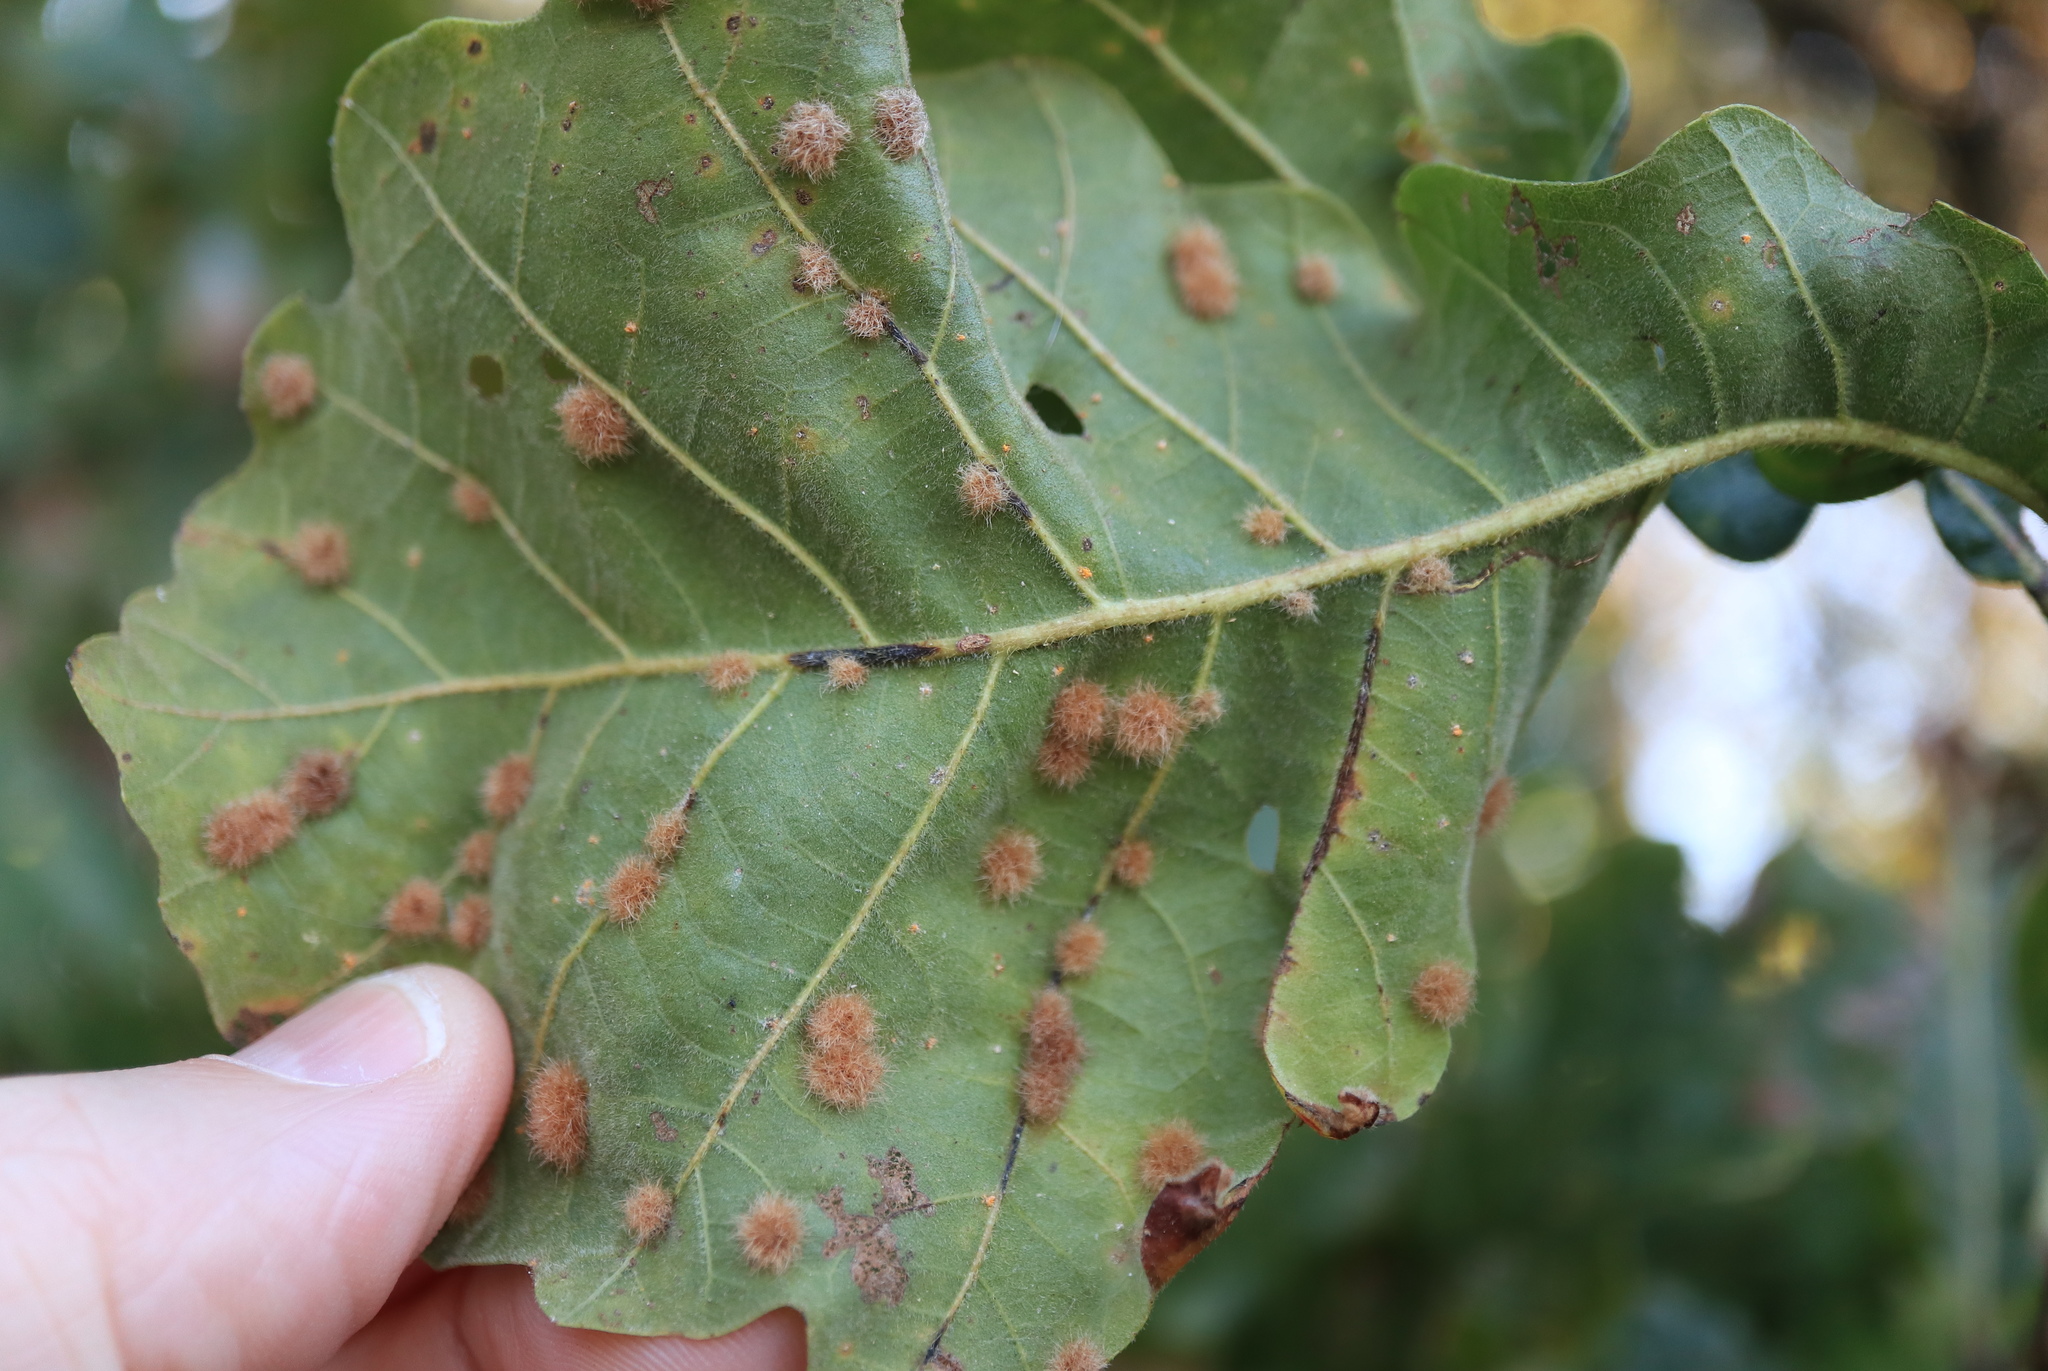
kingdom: Animalia
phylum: Arthropoda
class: Insecta
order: Hymenoptera
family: Cynipidae
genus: Neuroterus
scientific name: Neuroterus floccosus
